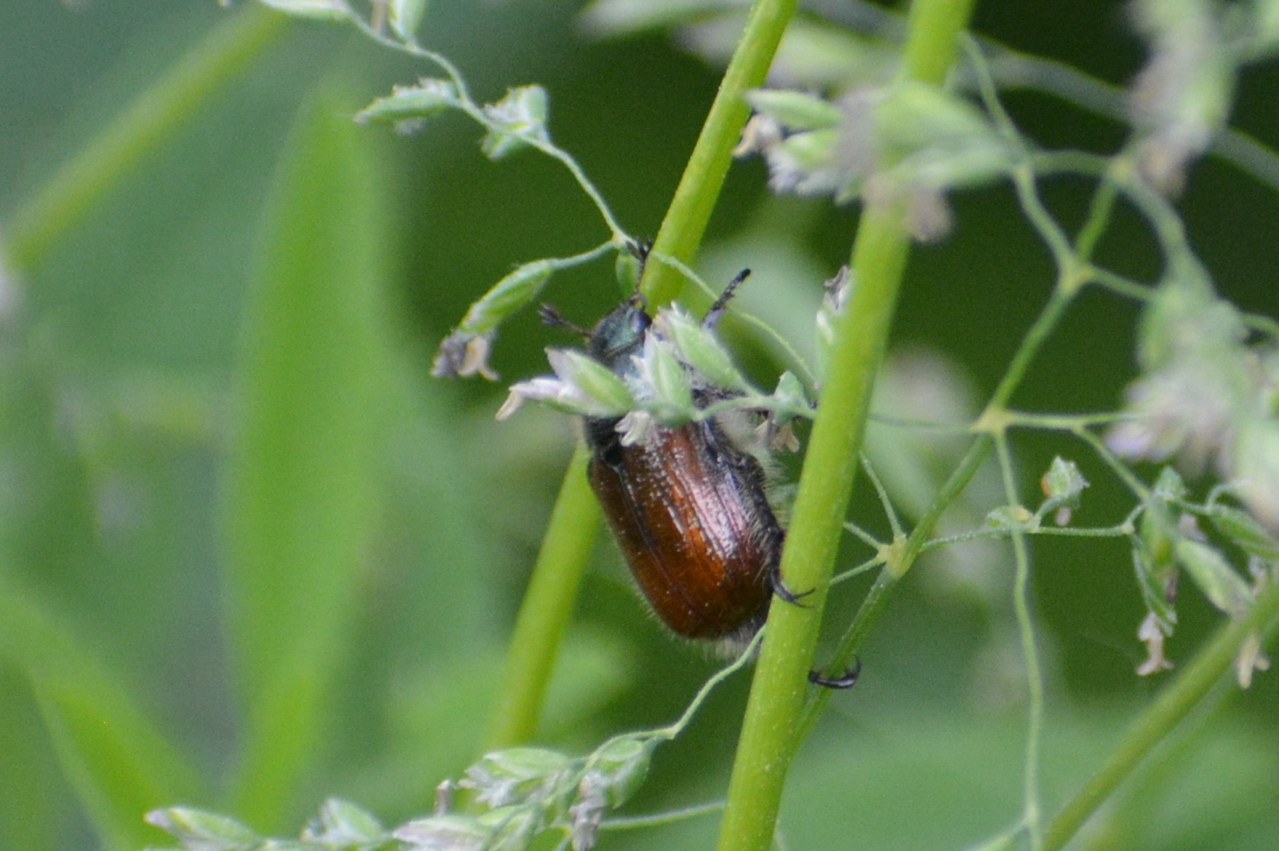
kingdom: Animalia
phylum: Arthropoda
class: Insecta
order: Coleoptera
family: Scarabaeidae
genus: Phyllopertha
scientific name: Phyllopertha horticola
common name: Garden chafer
